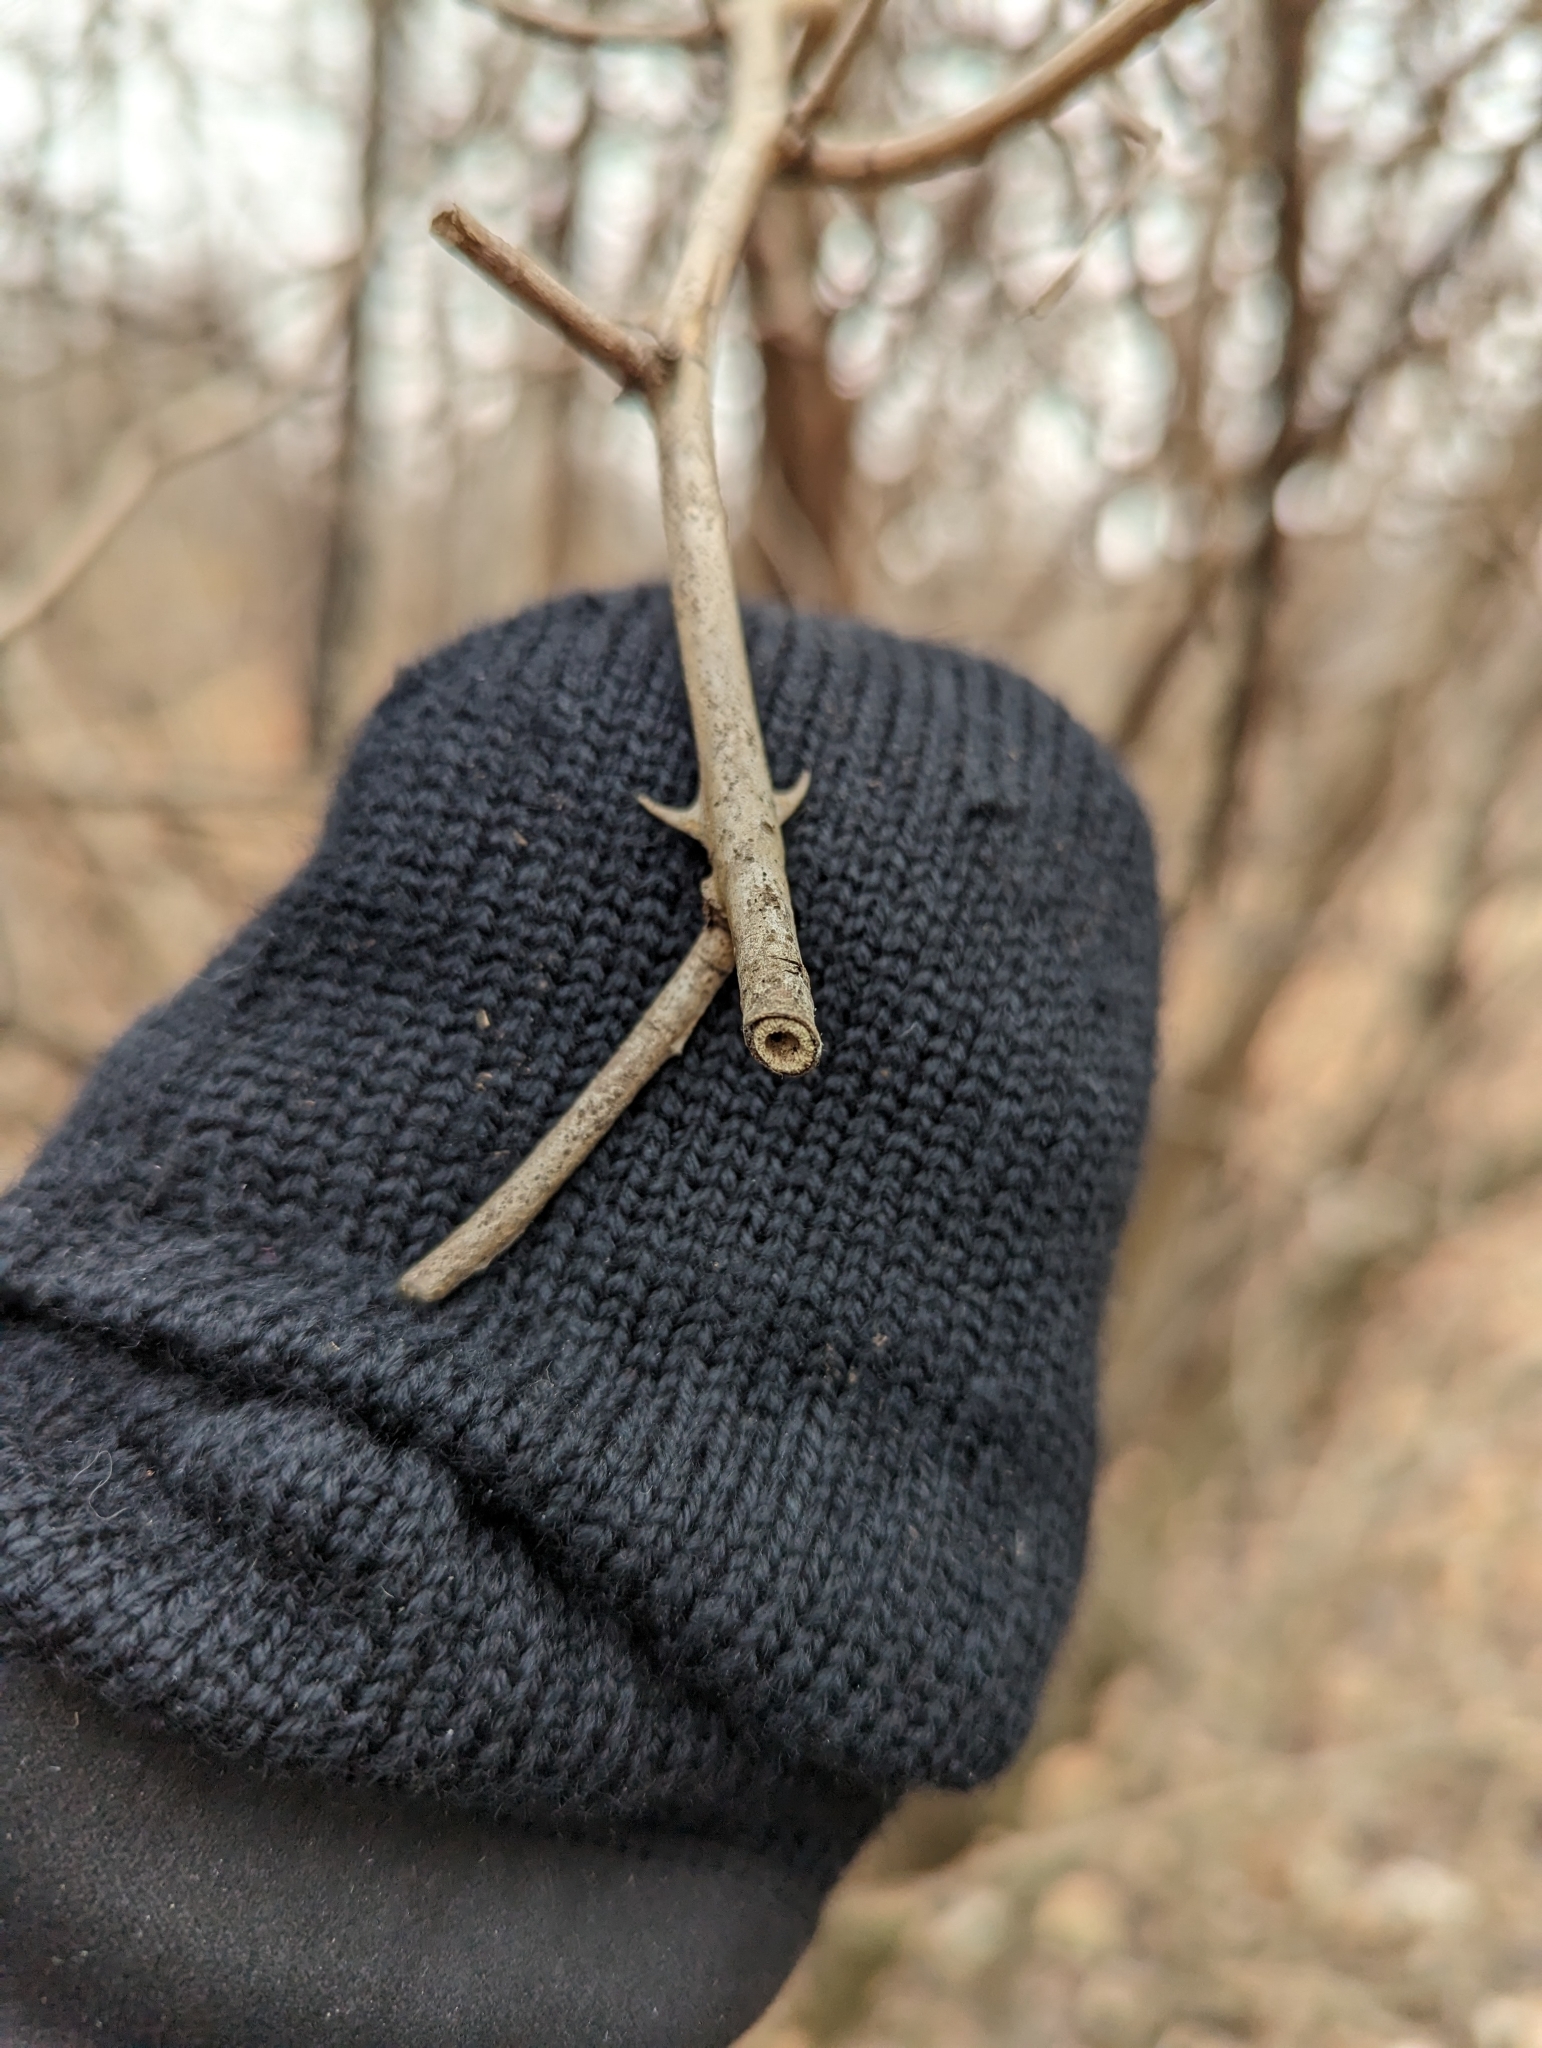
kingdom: Plantae
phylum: Tracheophyta
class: Magnoliopsida
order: Rosales
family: Rosaceae
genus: Rosa
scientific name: Rosa multiflora
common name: Multiflora rose
